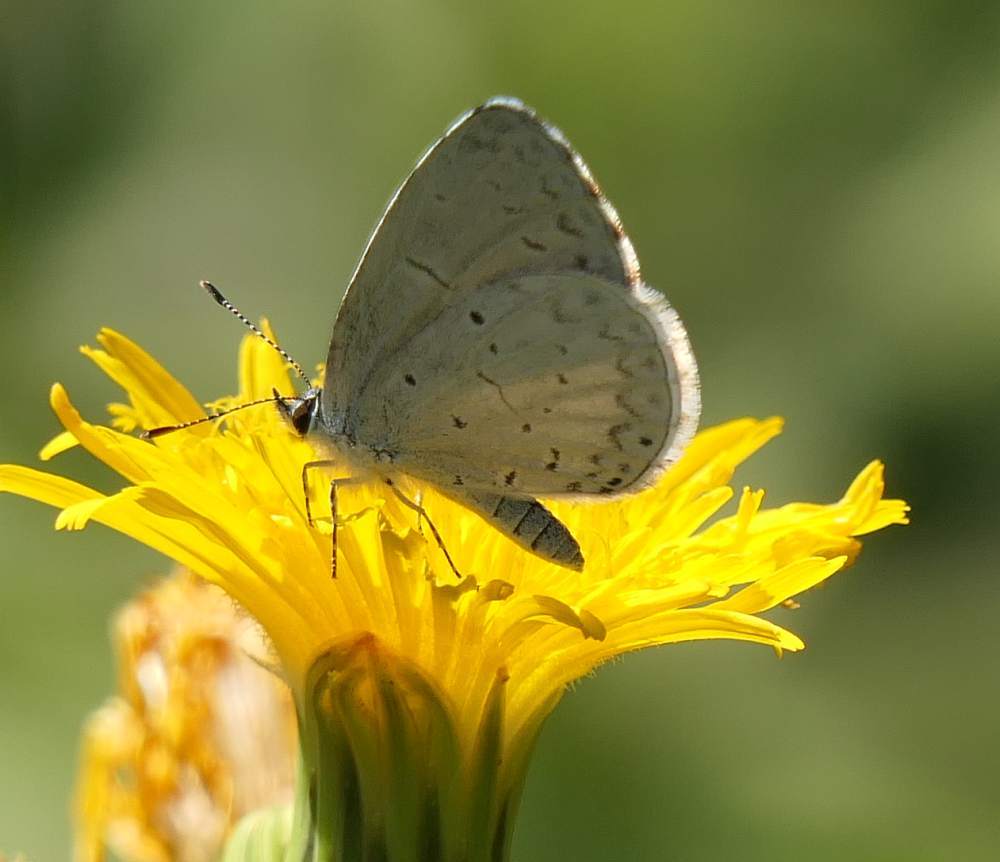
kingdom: Animalia
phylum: Arthropoda
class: Insecta
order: Lepidoptera
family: Lycaenidae
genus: Celastrina
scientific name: Celastrina lucia
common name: Lucia azure
